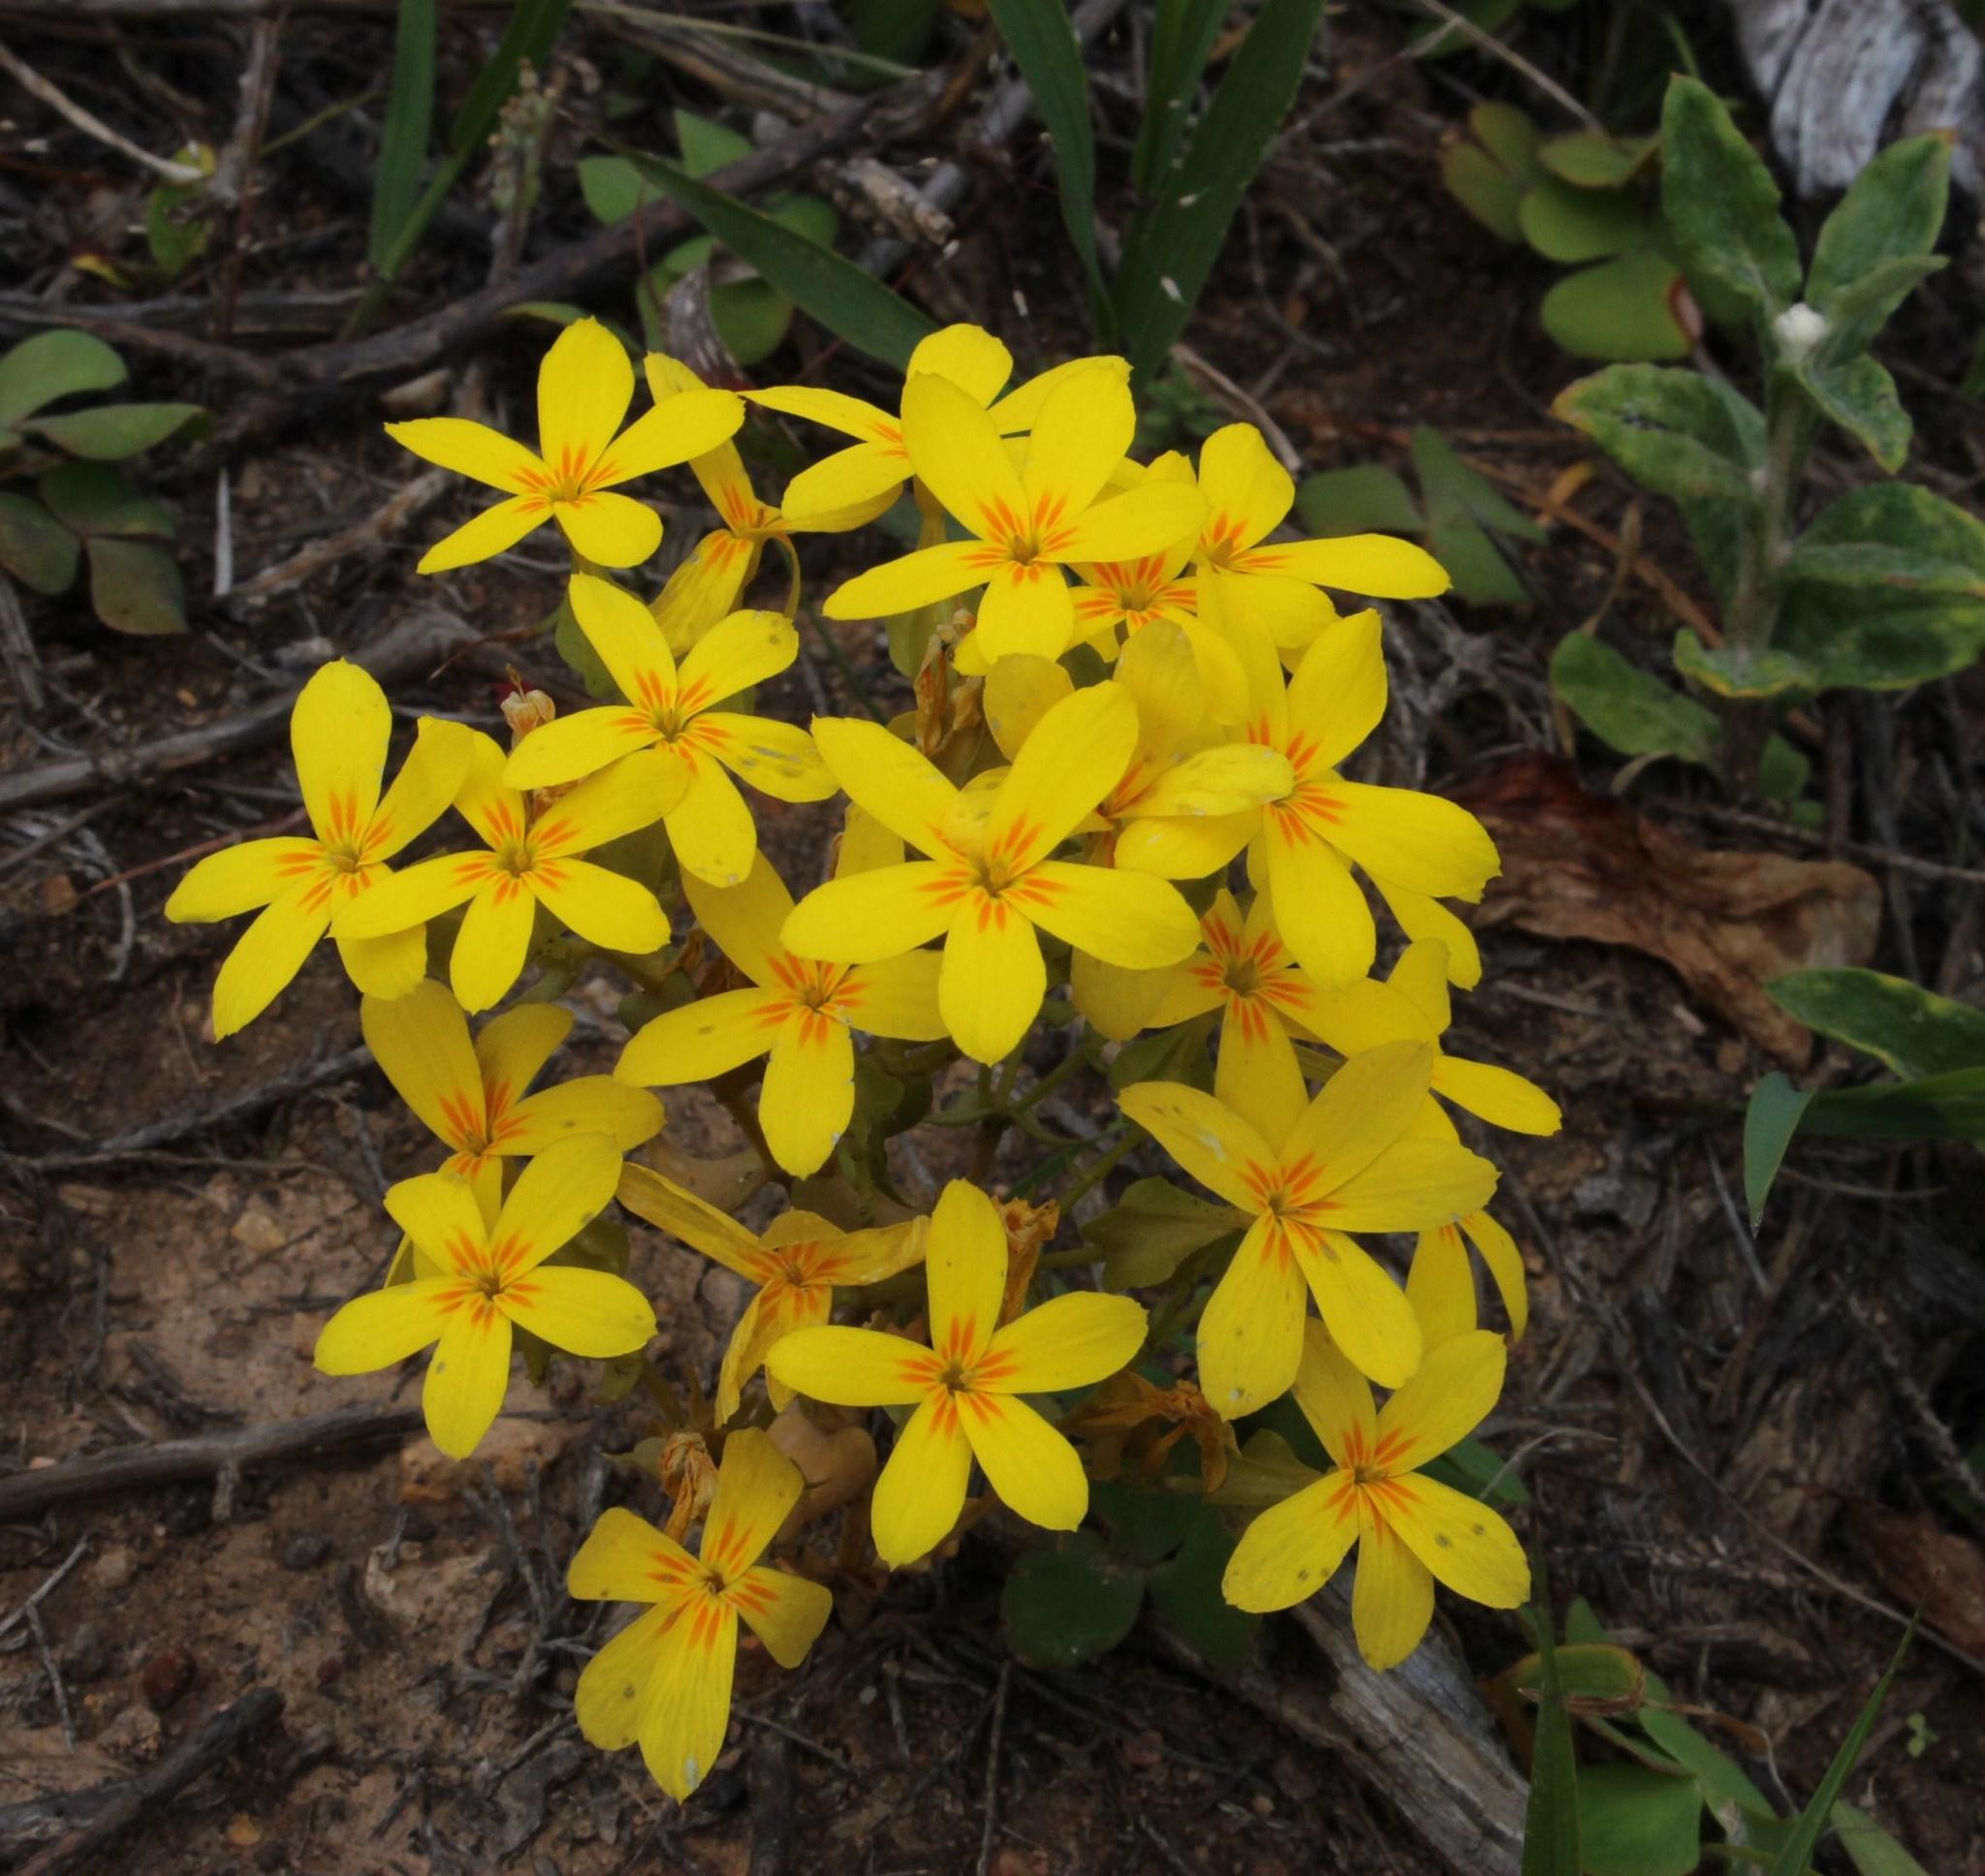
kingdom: Plantae
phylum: Tracheophyta
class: Magnoliopsida
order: Gentianales
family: Gentianaceae
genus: Sebaea
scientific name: Sebaea exacoides
